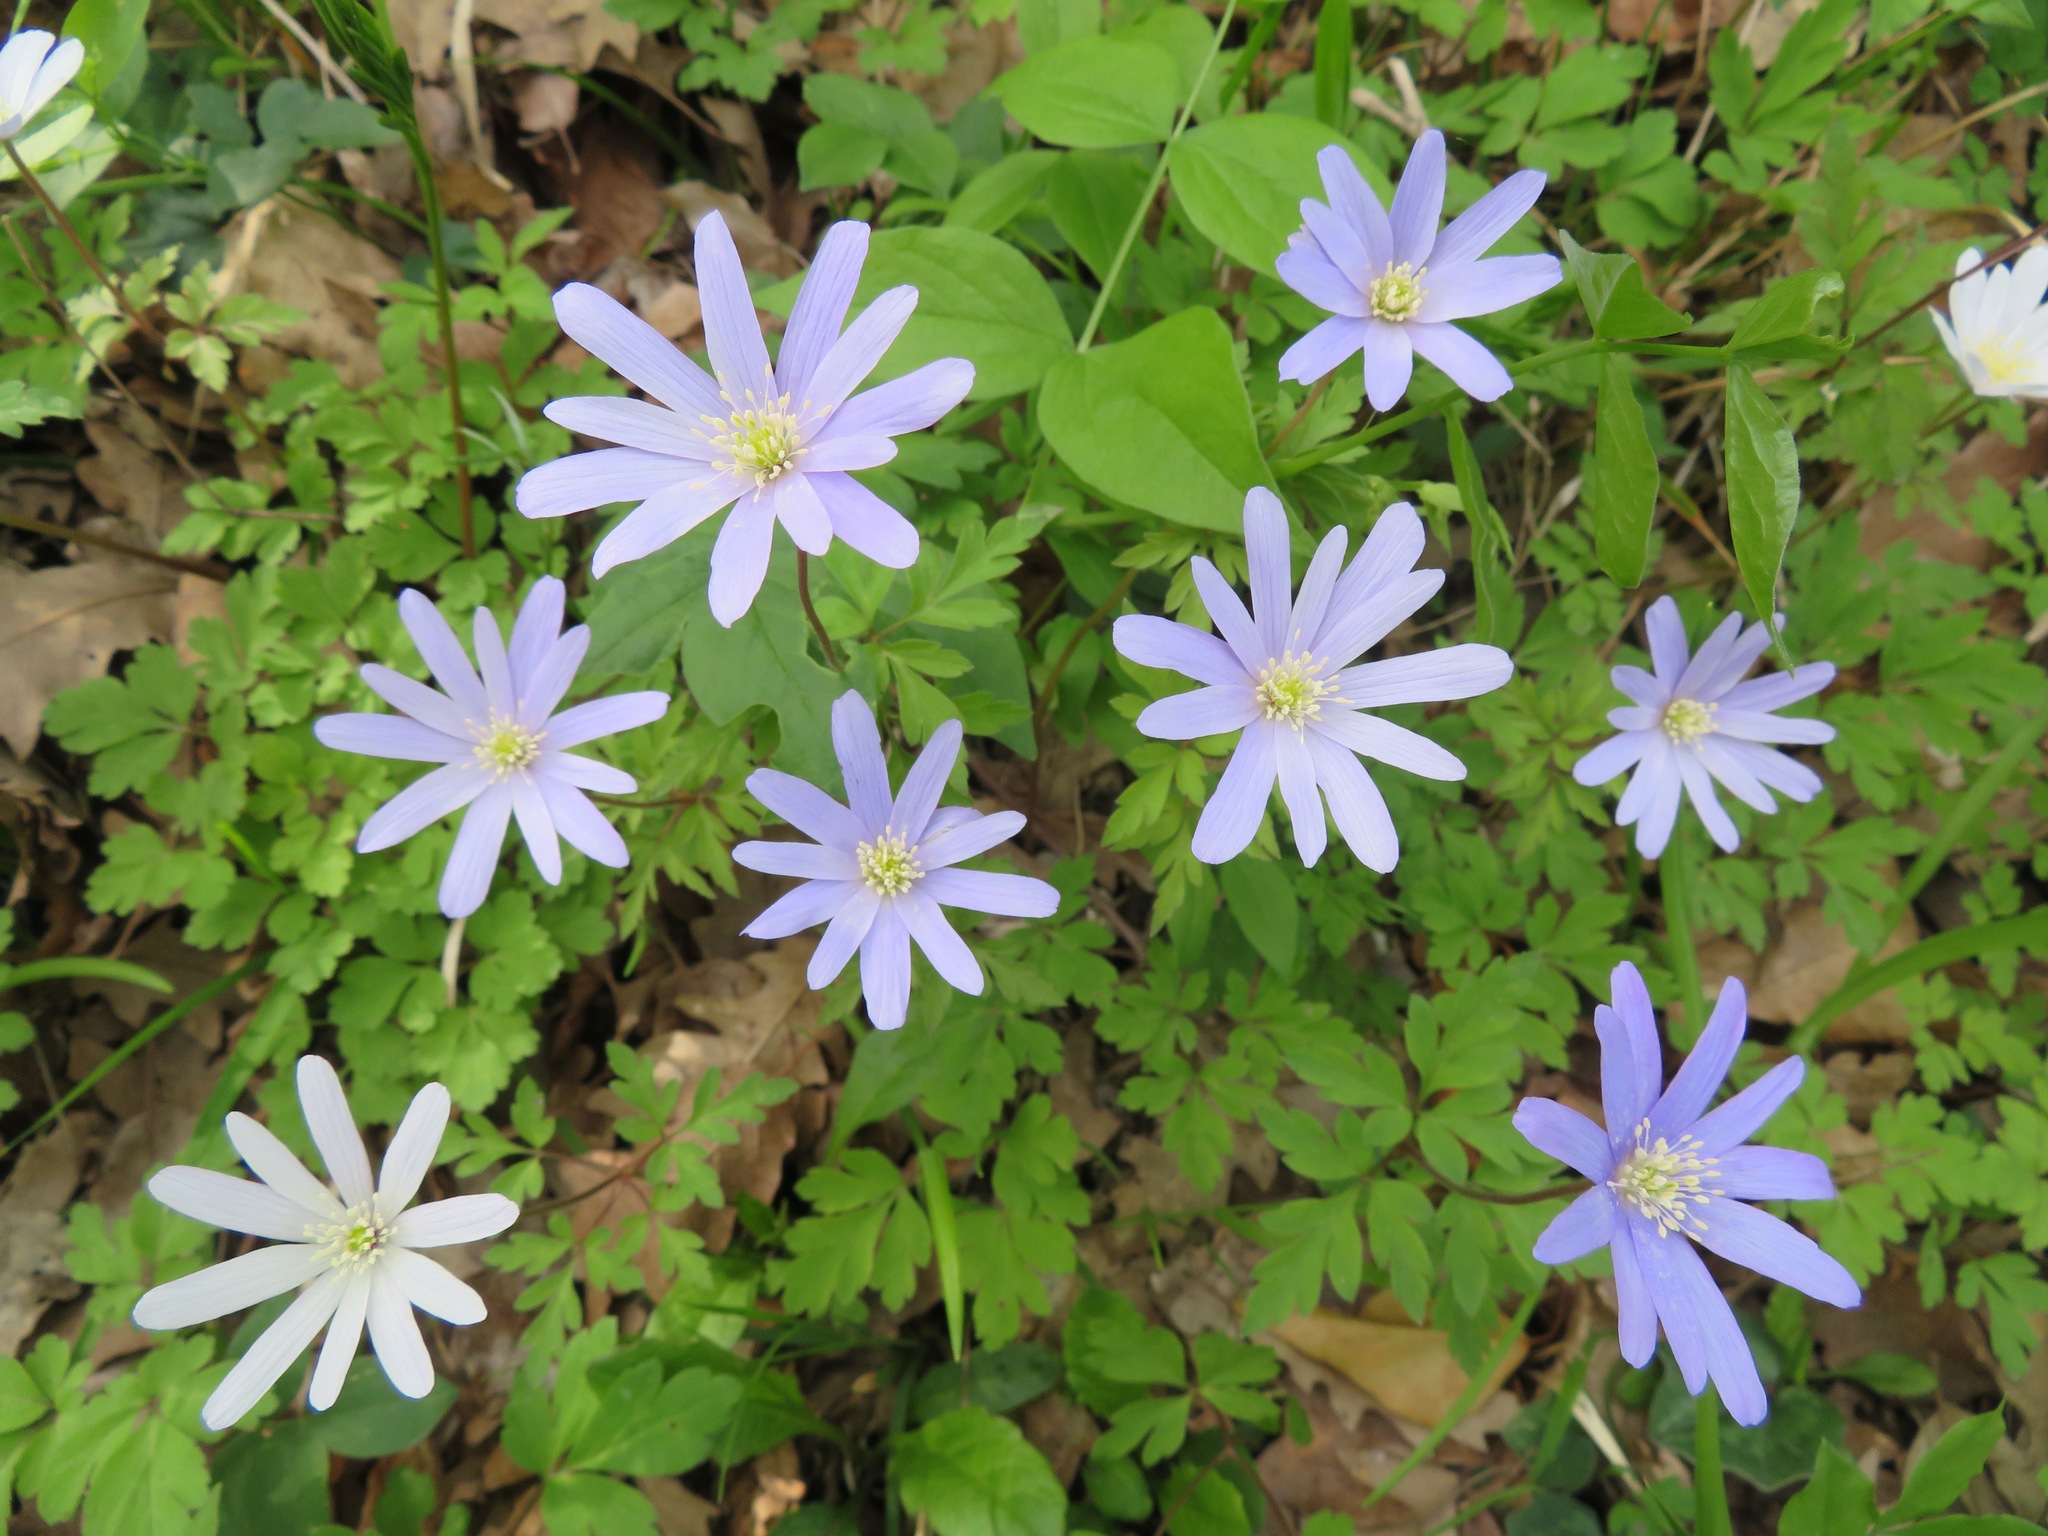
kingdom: Plantae
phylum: Tracheophyta
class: Magnoliopsida
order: Ranunculales
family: Ranunculaceae
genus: Anemone
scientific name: Anemone apennina
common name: Blue anemone
